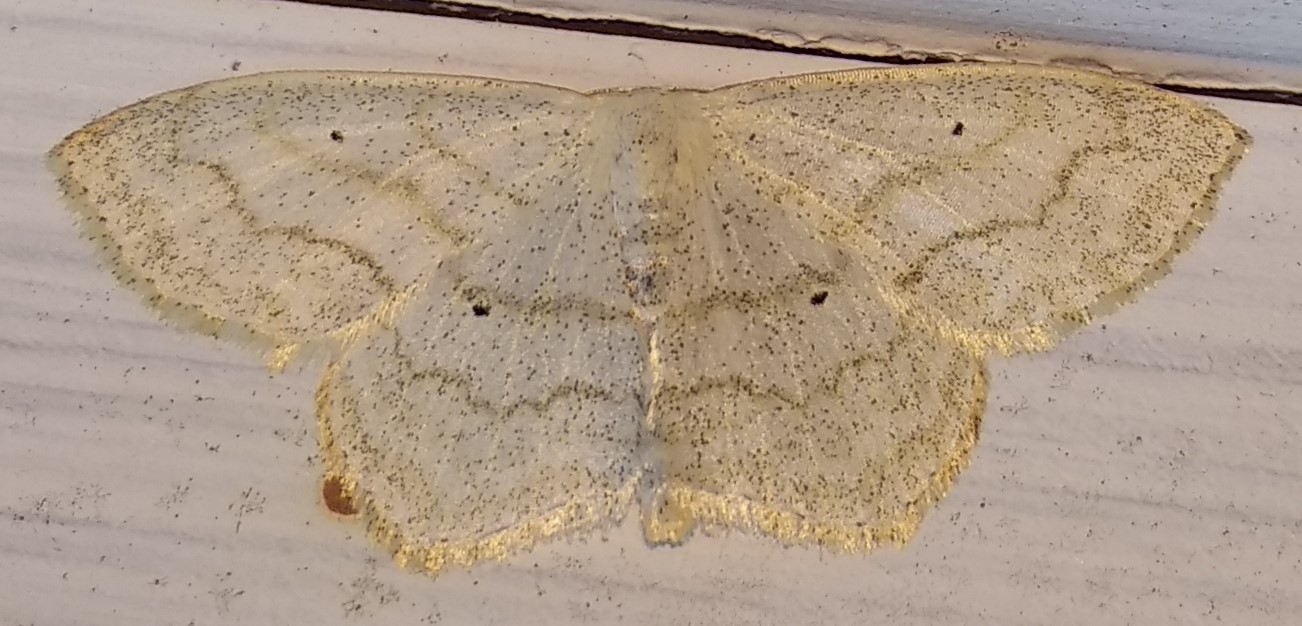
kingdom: Animalia
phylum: Arthropoda
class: Insecta
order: Lepidoptera
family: Geometridae
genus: Scopula
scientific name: Scopula limboundata
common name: Large lace border
